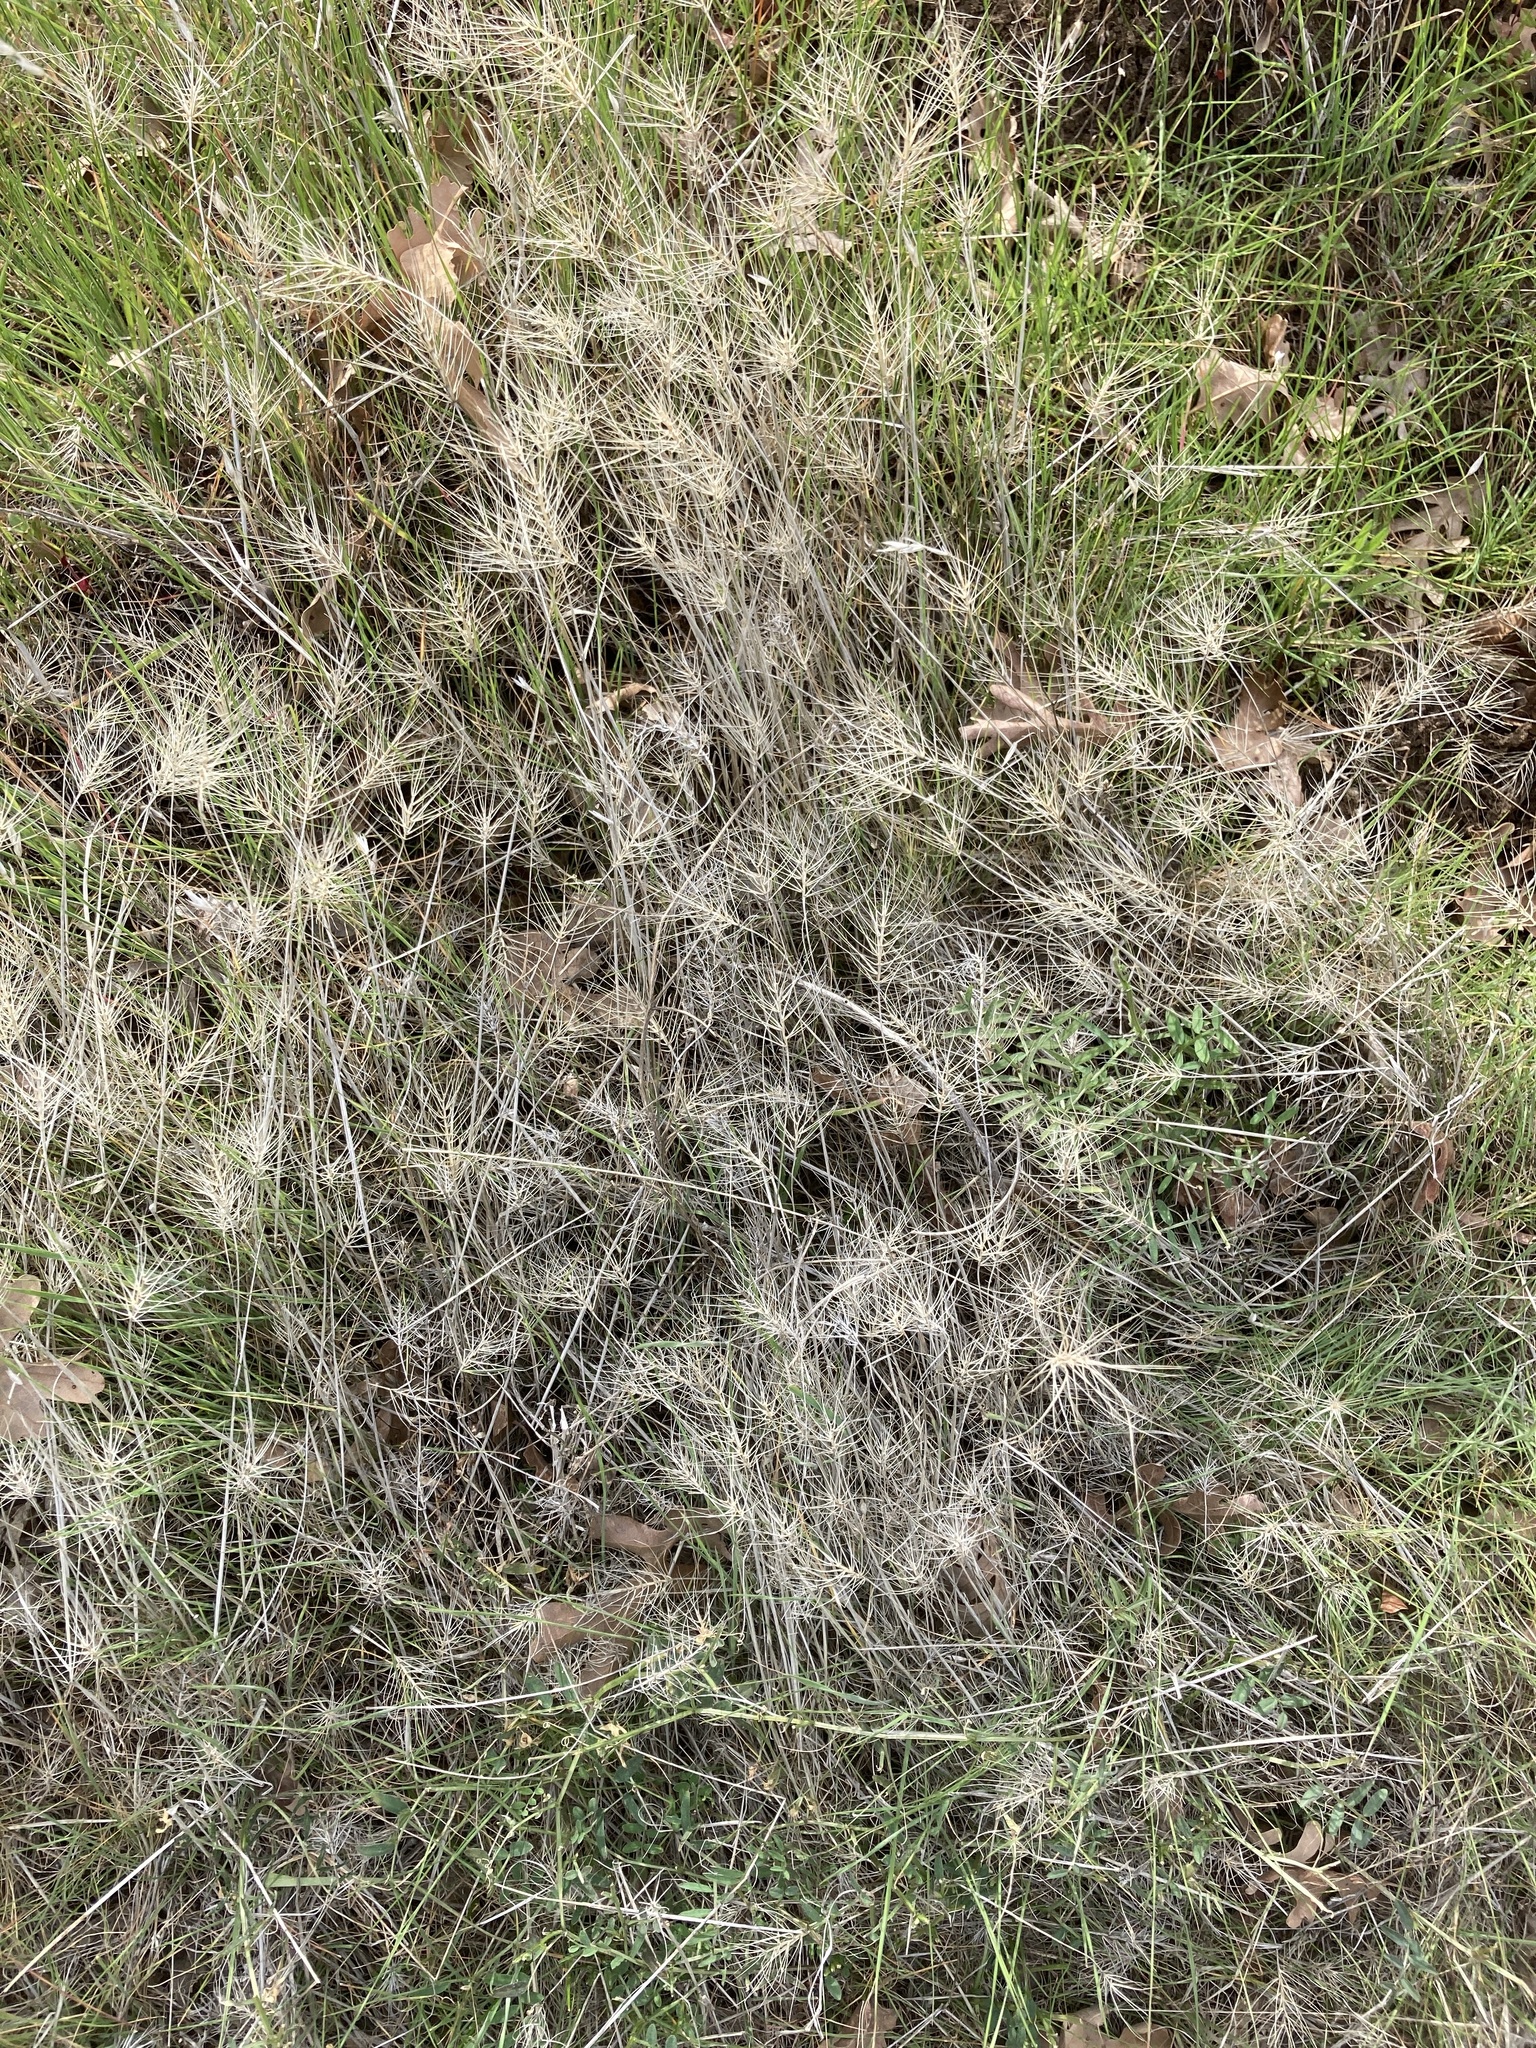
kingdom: Plantae
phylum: Tracheophyta
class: Liliopsida
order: Poales
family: Poaceae
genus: Taeniatherum
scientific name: Taeniatherum caput-medusae
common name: Medusahead
